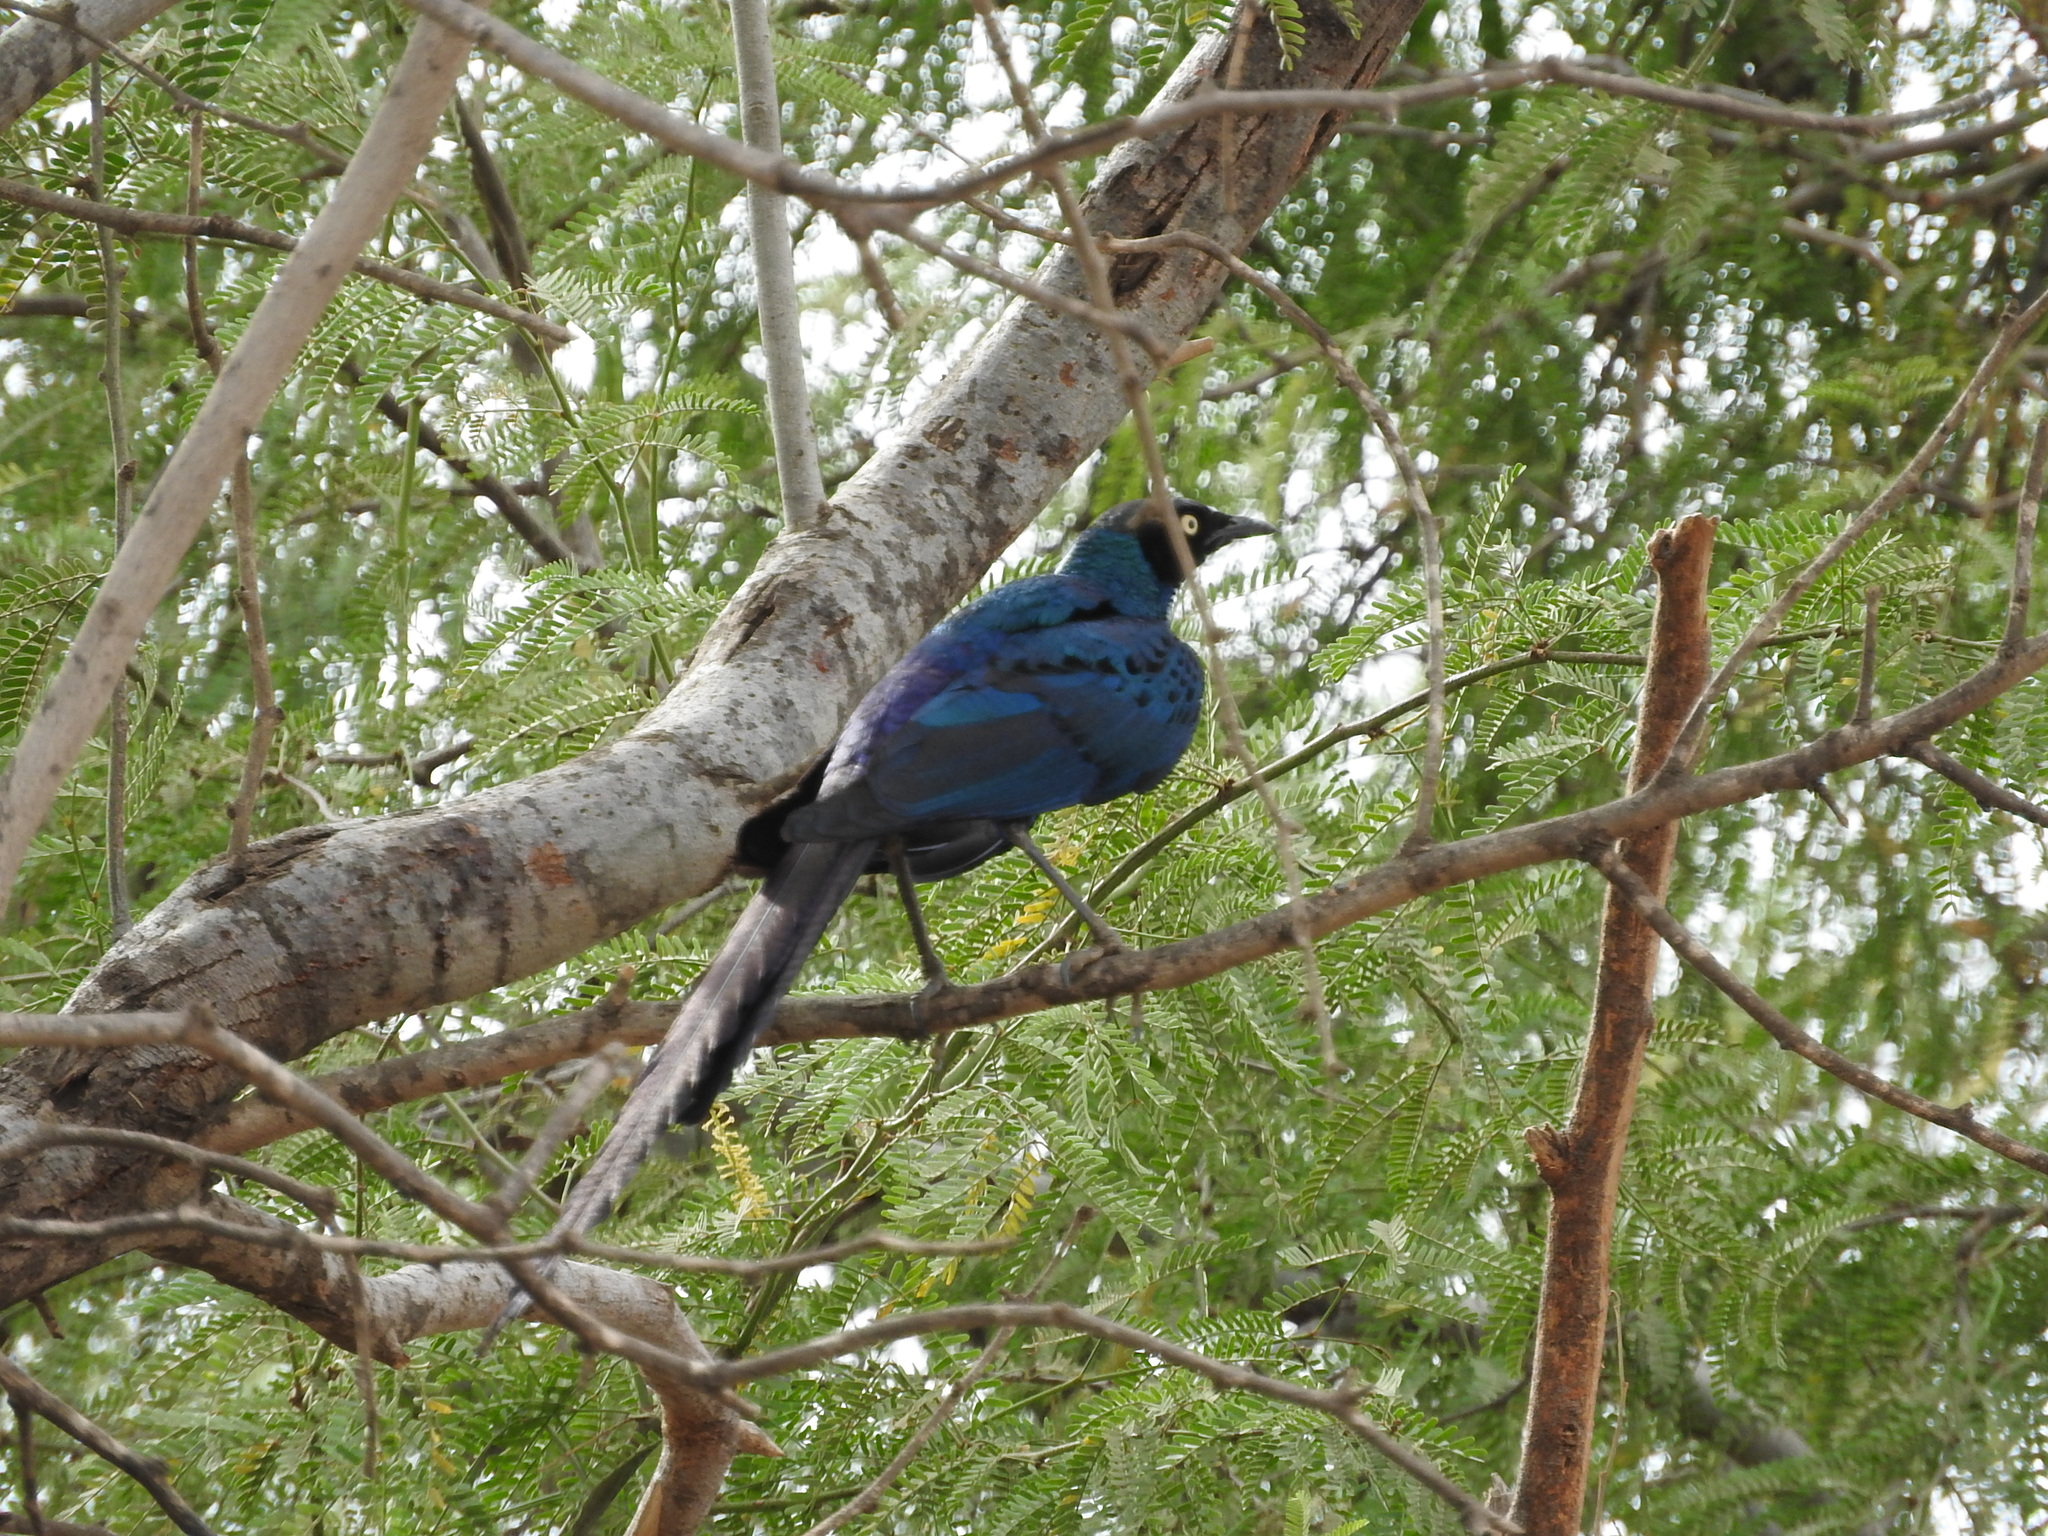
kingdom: Animalia
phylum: Chordata
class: Aves
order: Passeriformes
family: Sturnidae
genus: Lamprotornis
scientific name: Lamprotornis caudatus
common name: Long-tailed glossy starling
